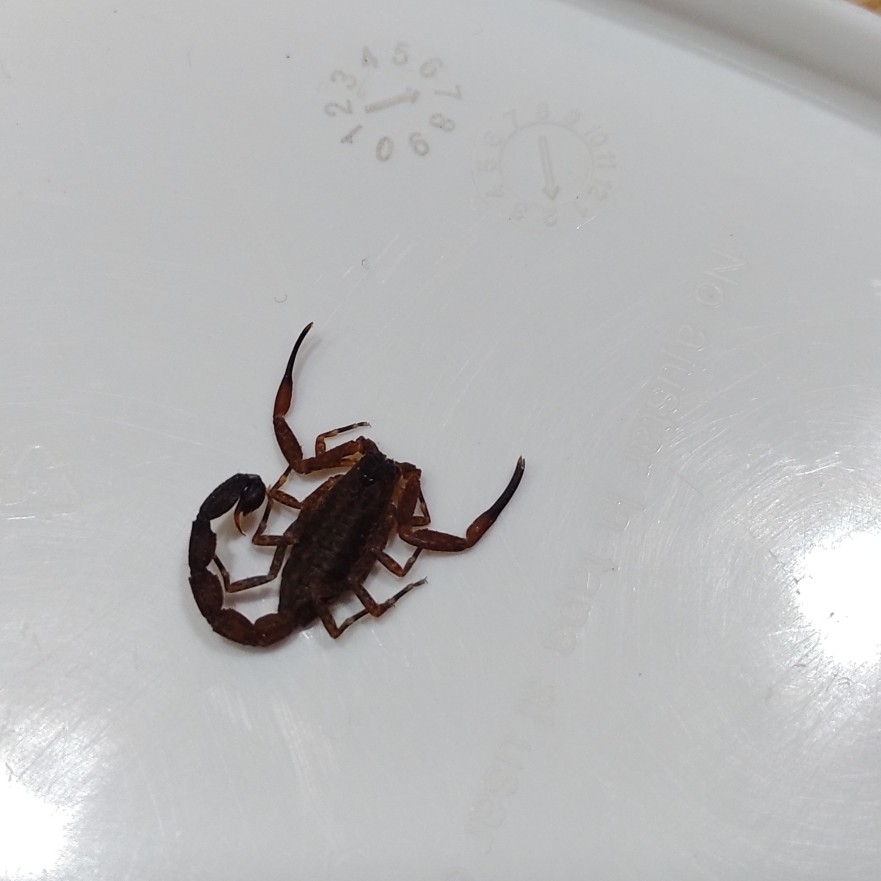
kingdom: Animalia
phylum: Arthropoda
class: Arachnida
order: Scorpiones
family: Buthidae
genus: Tityus
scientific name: Tityus antioquensis
